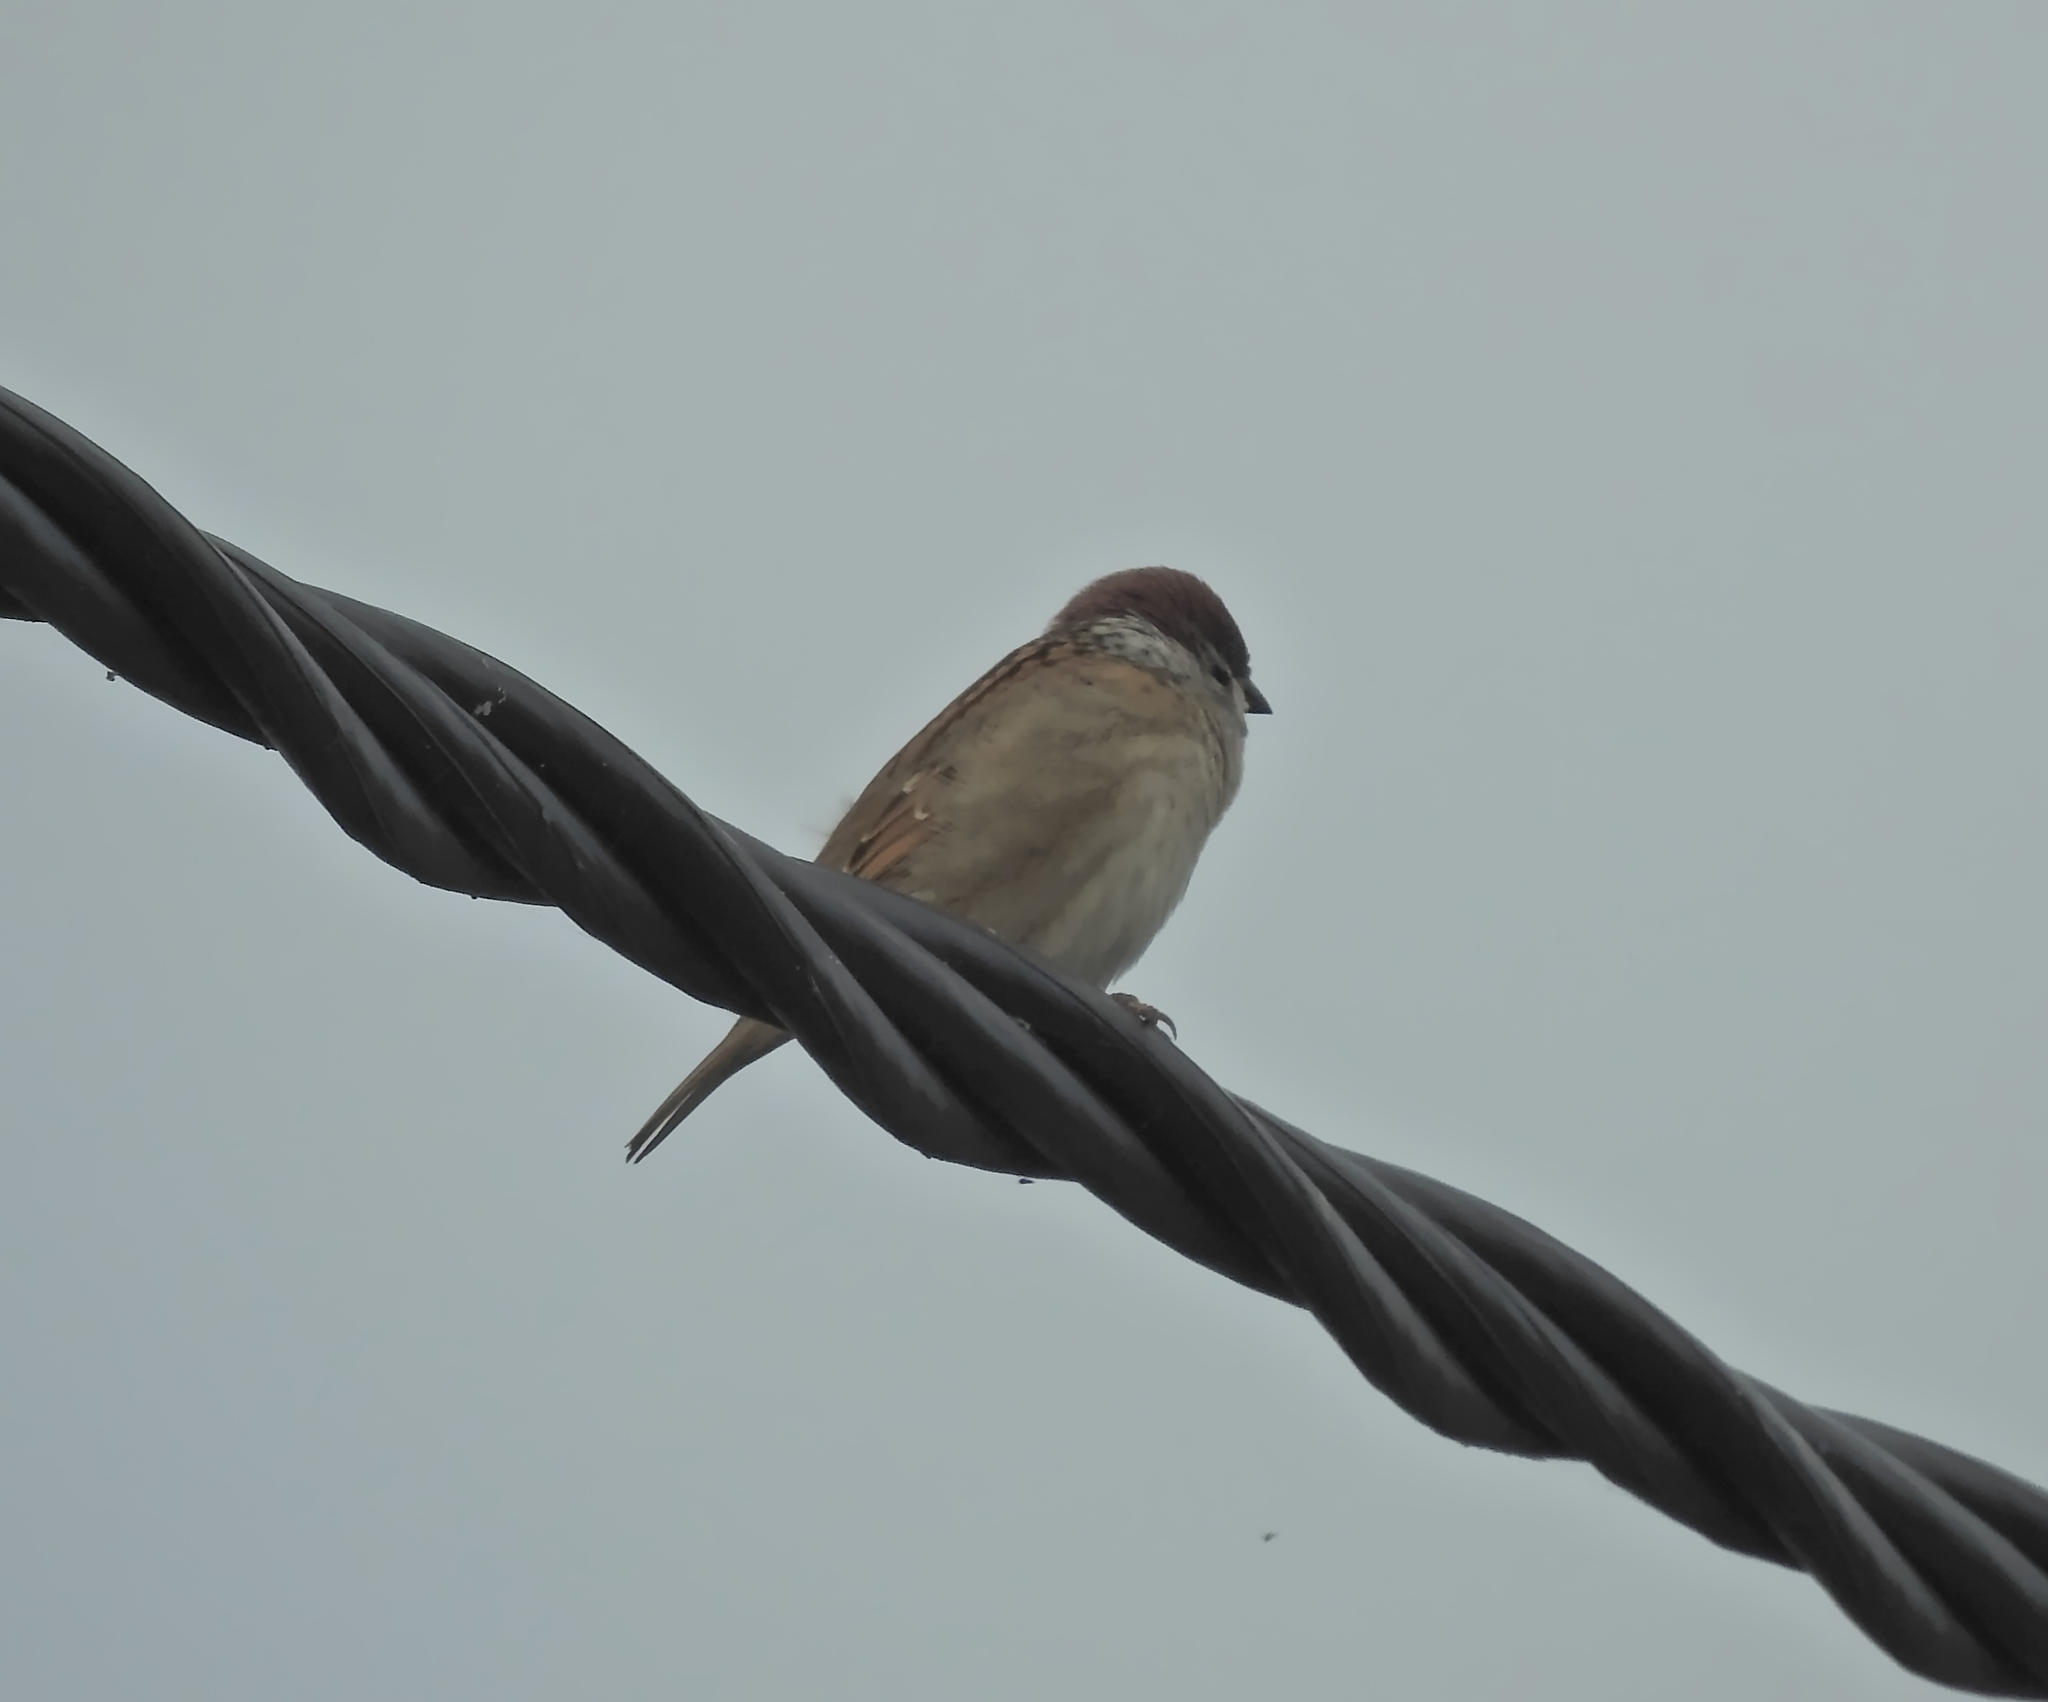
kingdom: Animalia
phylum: Chordata
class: Aves
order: Passeriformes
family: Passeridae
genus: Passer
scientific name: Passer montanus
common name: Eurasian tree sparrow
